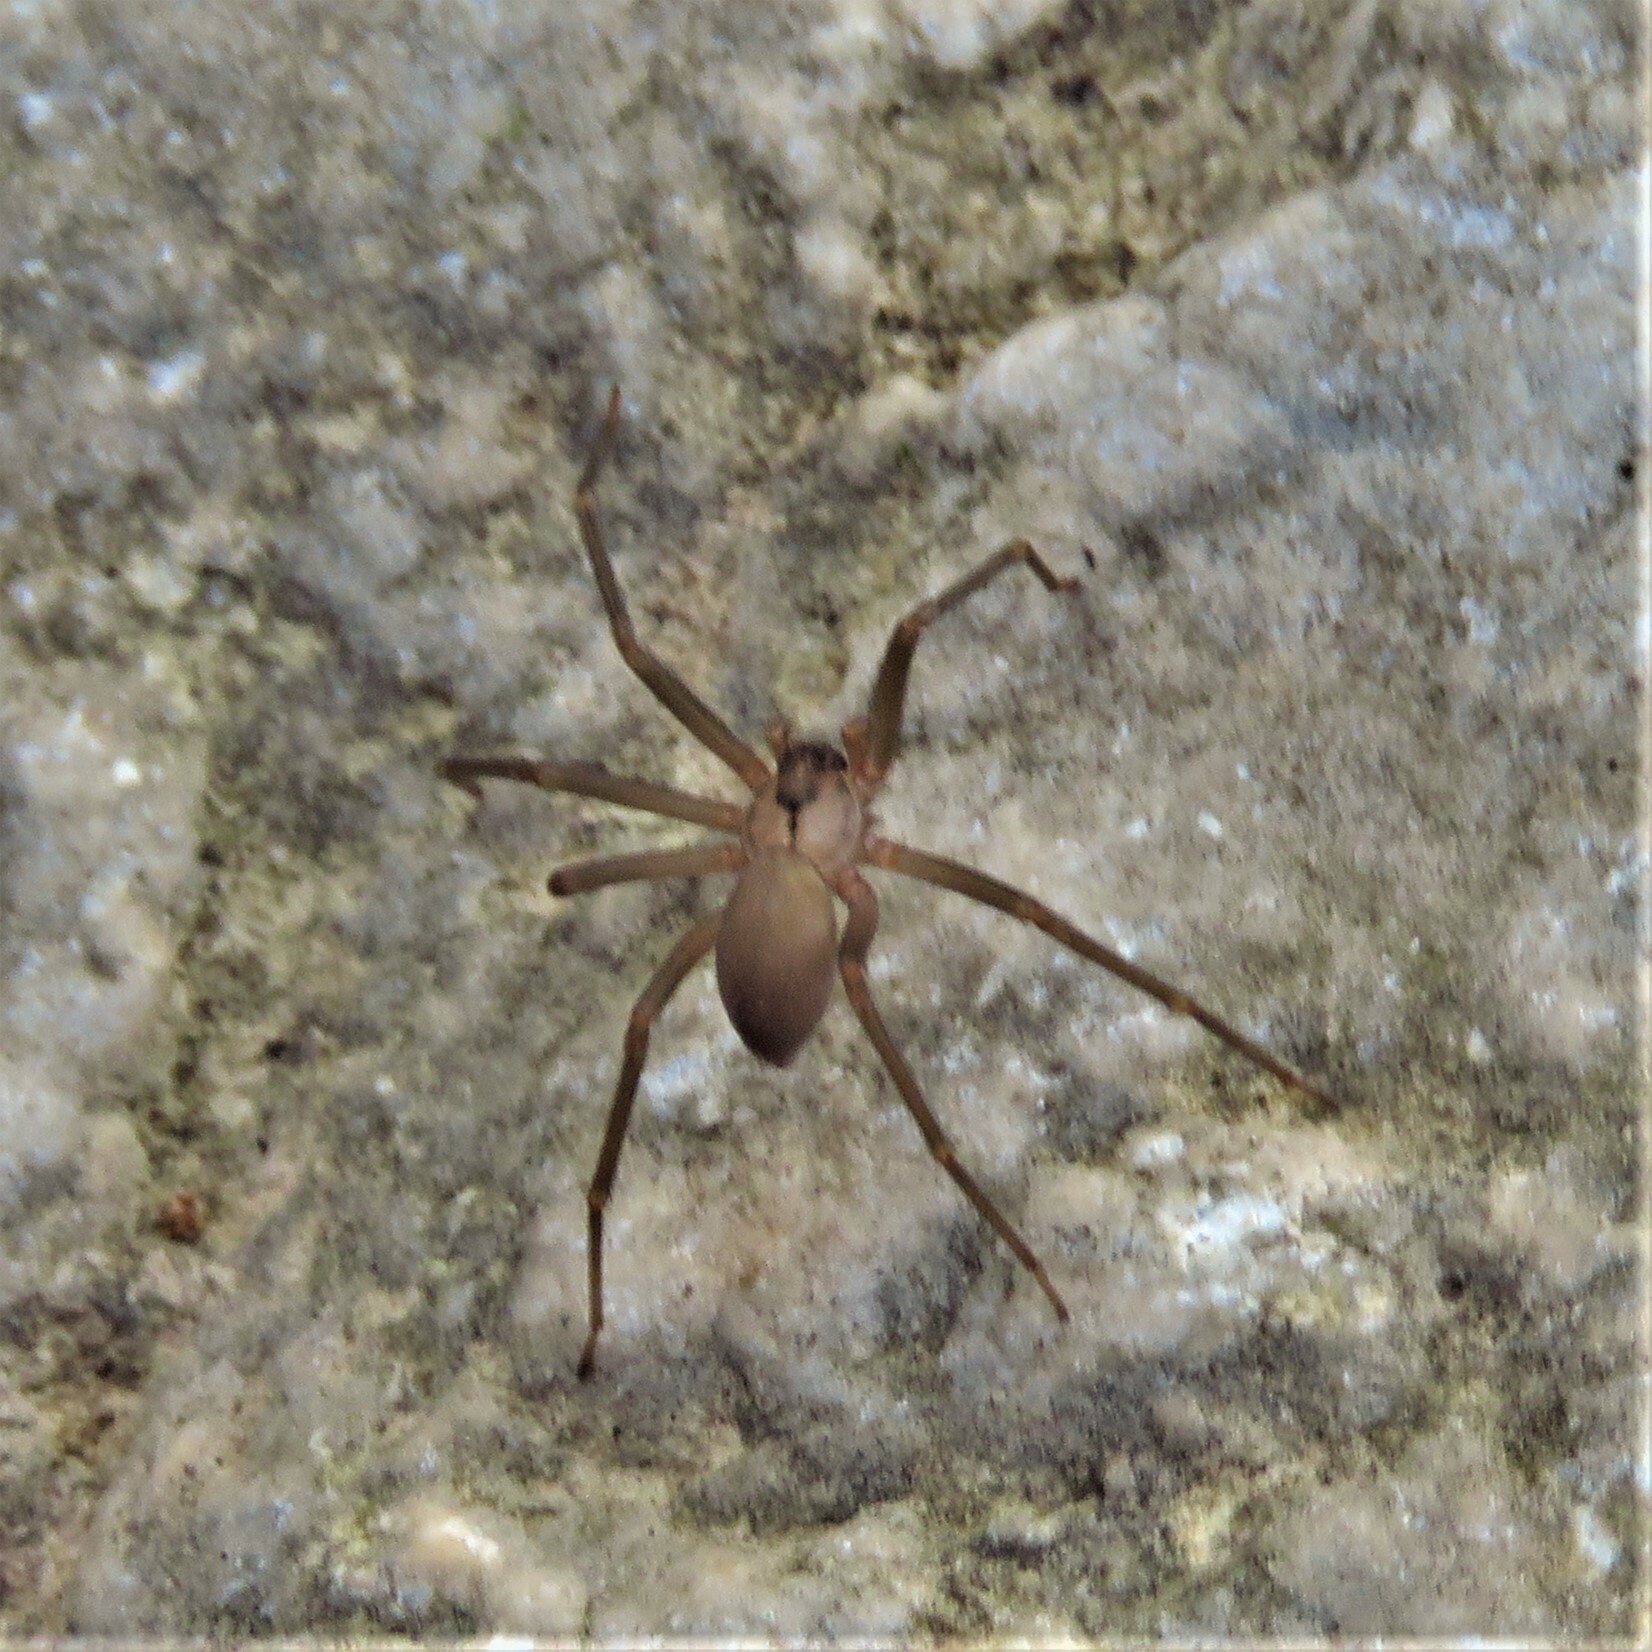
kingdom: Animalia
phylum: Arthropoda
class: Arachnida
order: Araneae
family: Sicariidae
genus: Loxosceles
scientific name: Loxosceles reclusa
